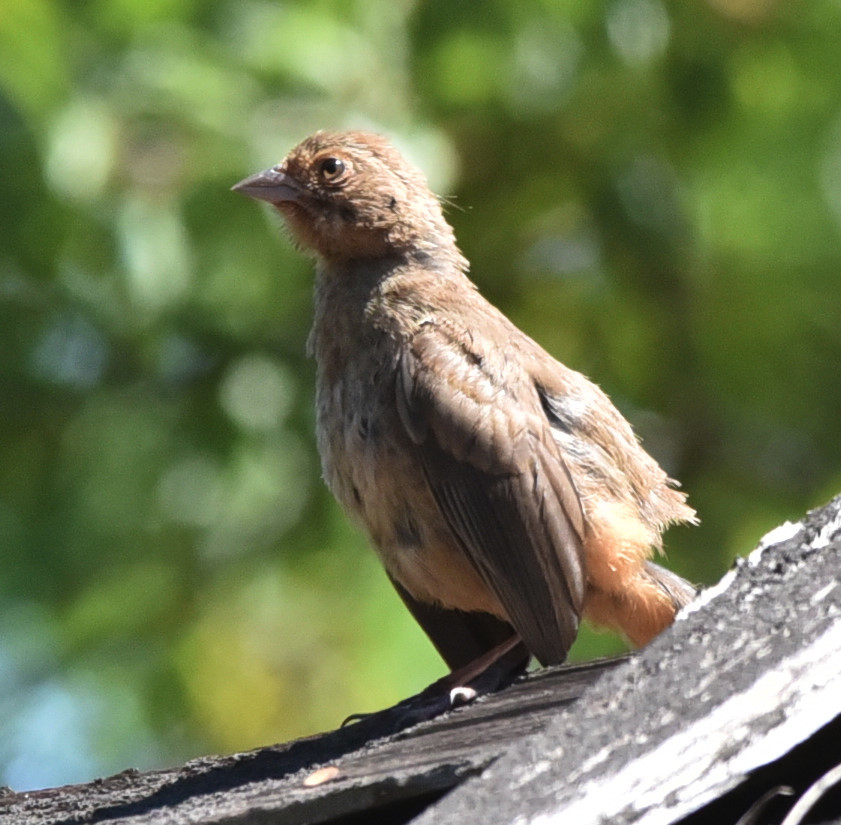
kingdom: Animalia
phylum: Chordata
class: Aves
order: Passeriformes
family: Passerellidae
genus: Melozone
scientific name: Melozone crissalis
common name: California towhee
